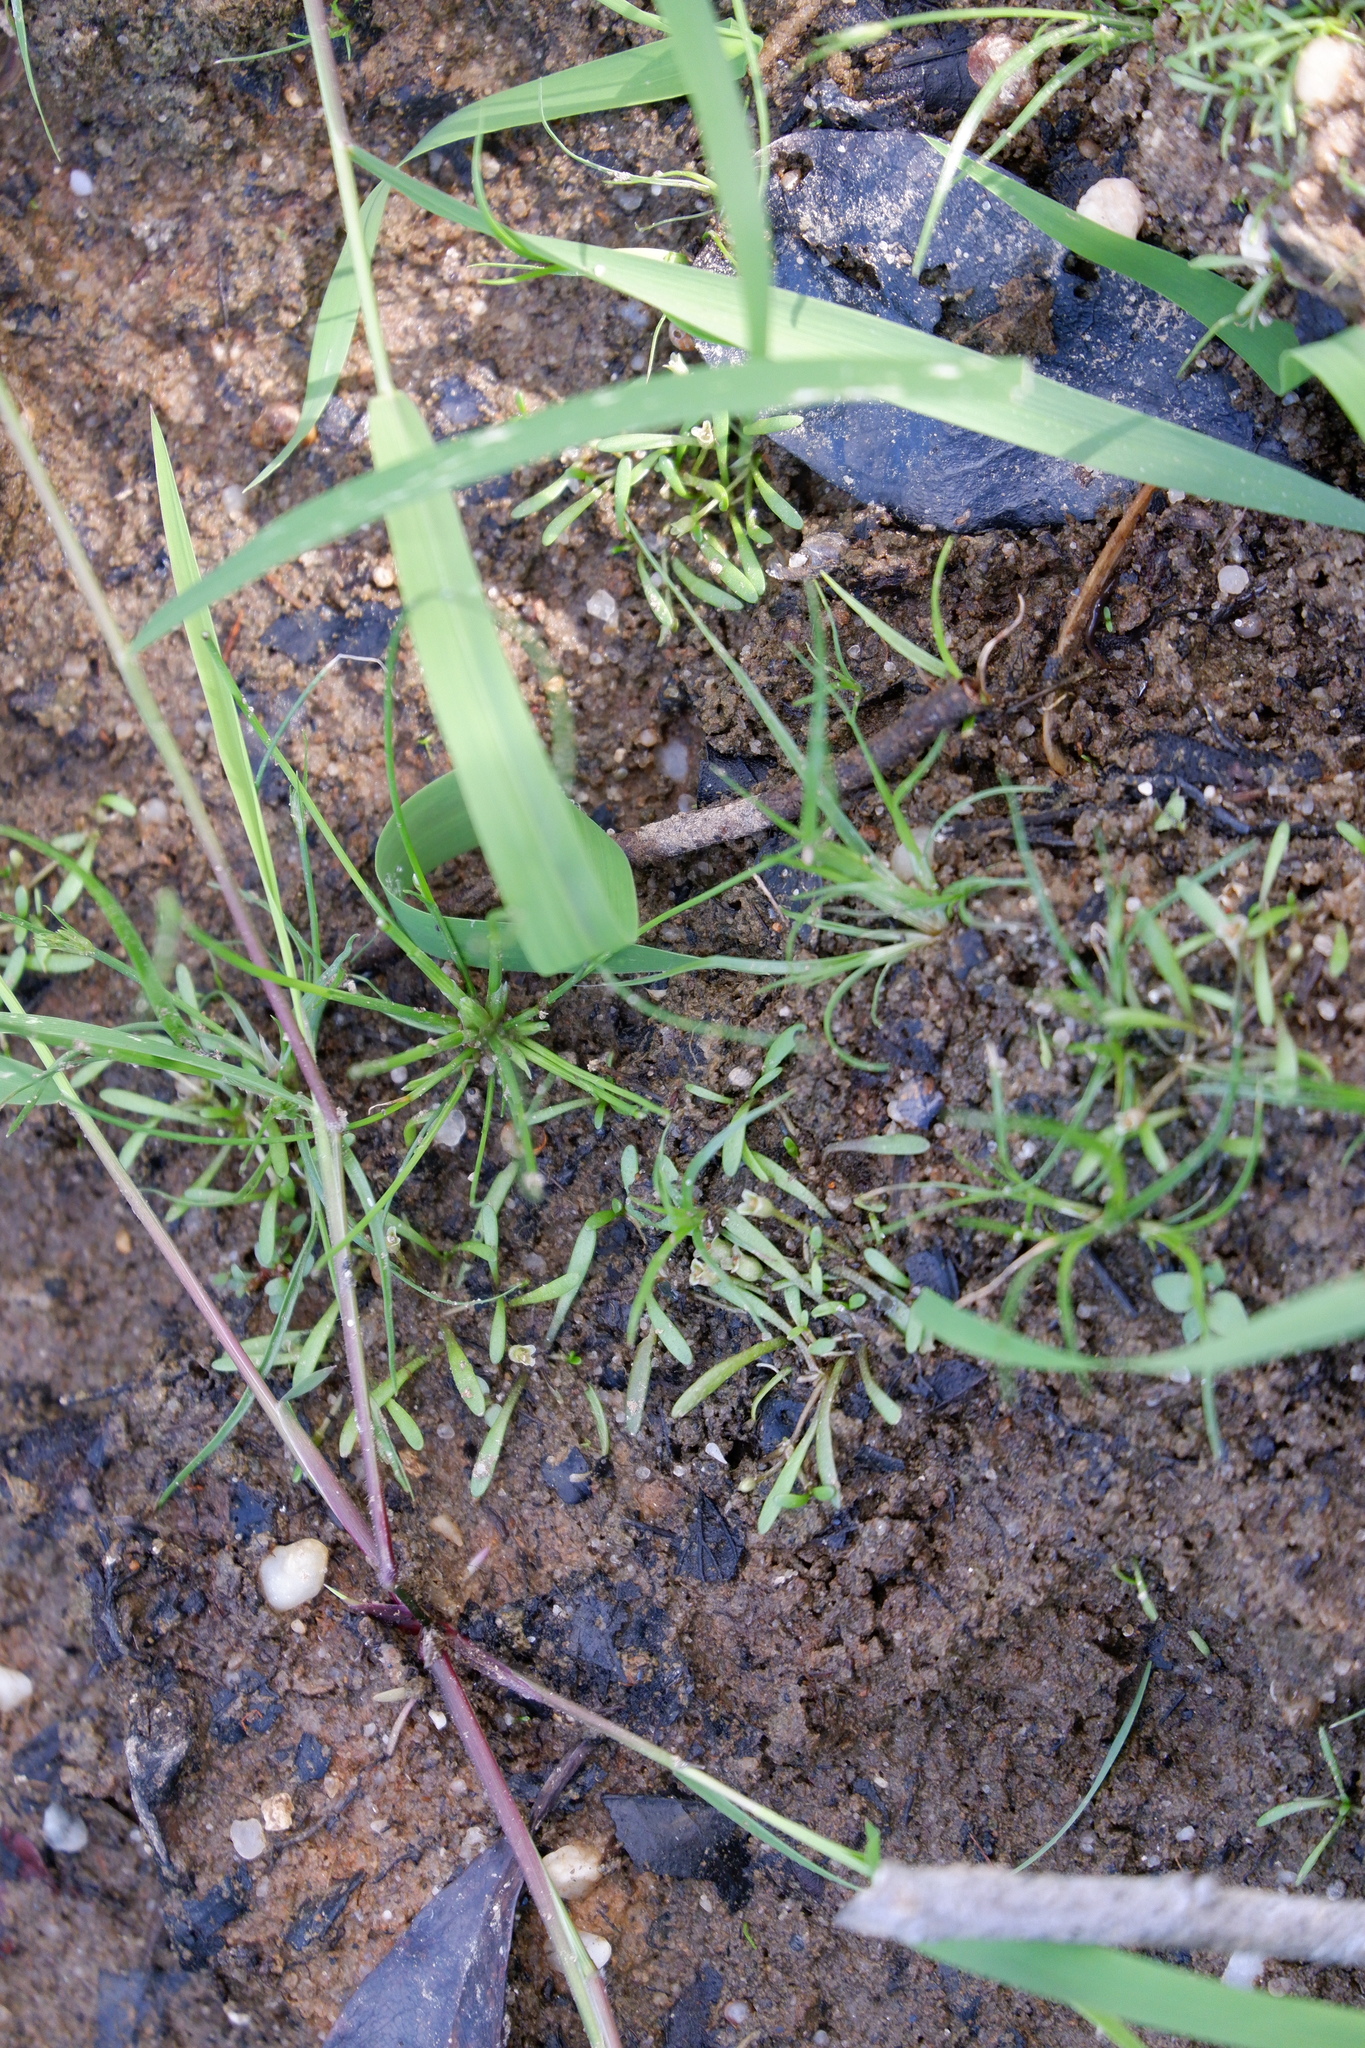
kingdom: Plantae
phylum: Tracheophyta
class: Magnoliopsida
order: Lamiales
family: Phrymaceae
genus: Glossostigma
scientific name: Glossostigma cleistanthum
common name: Mudmats
